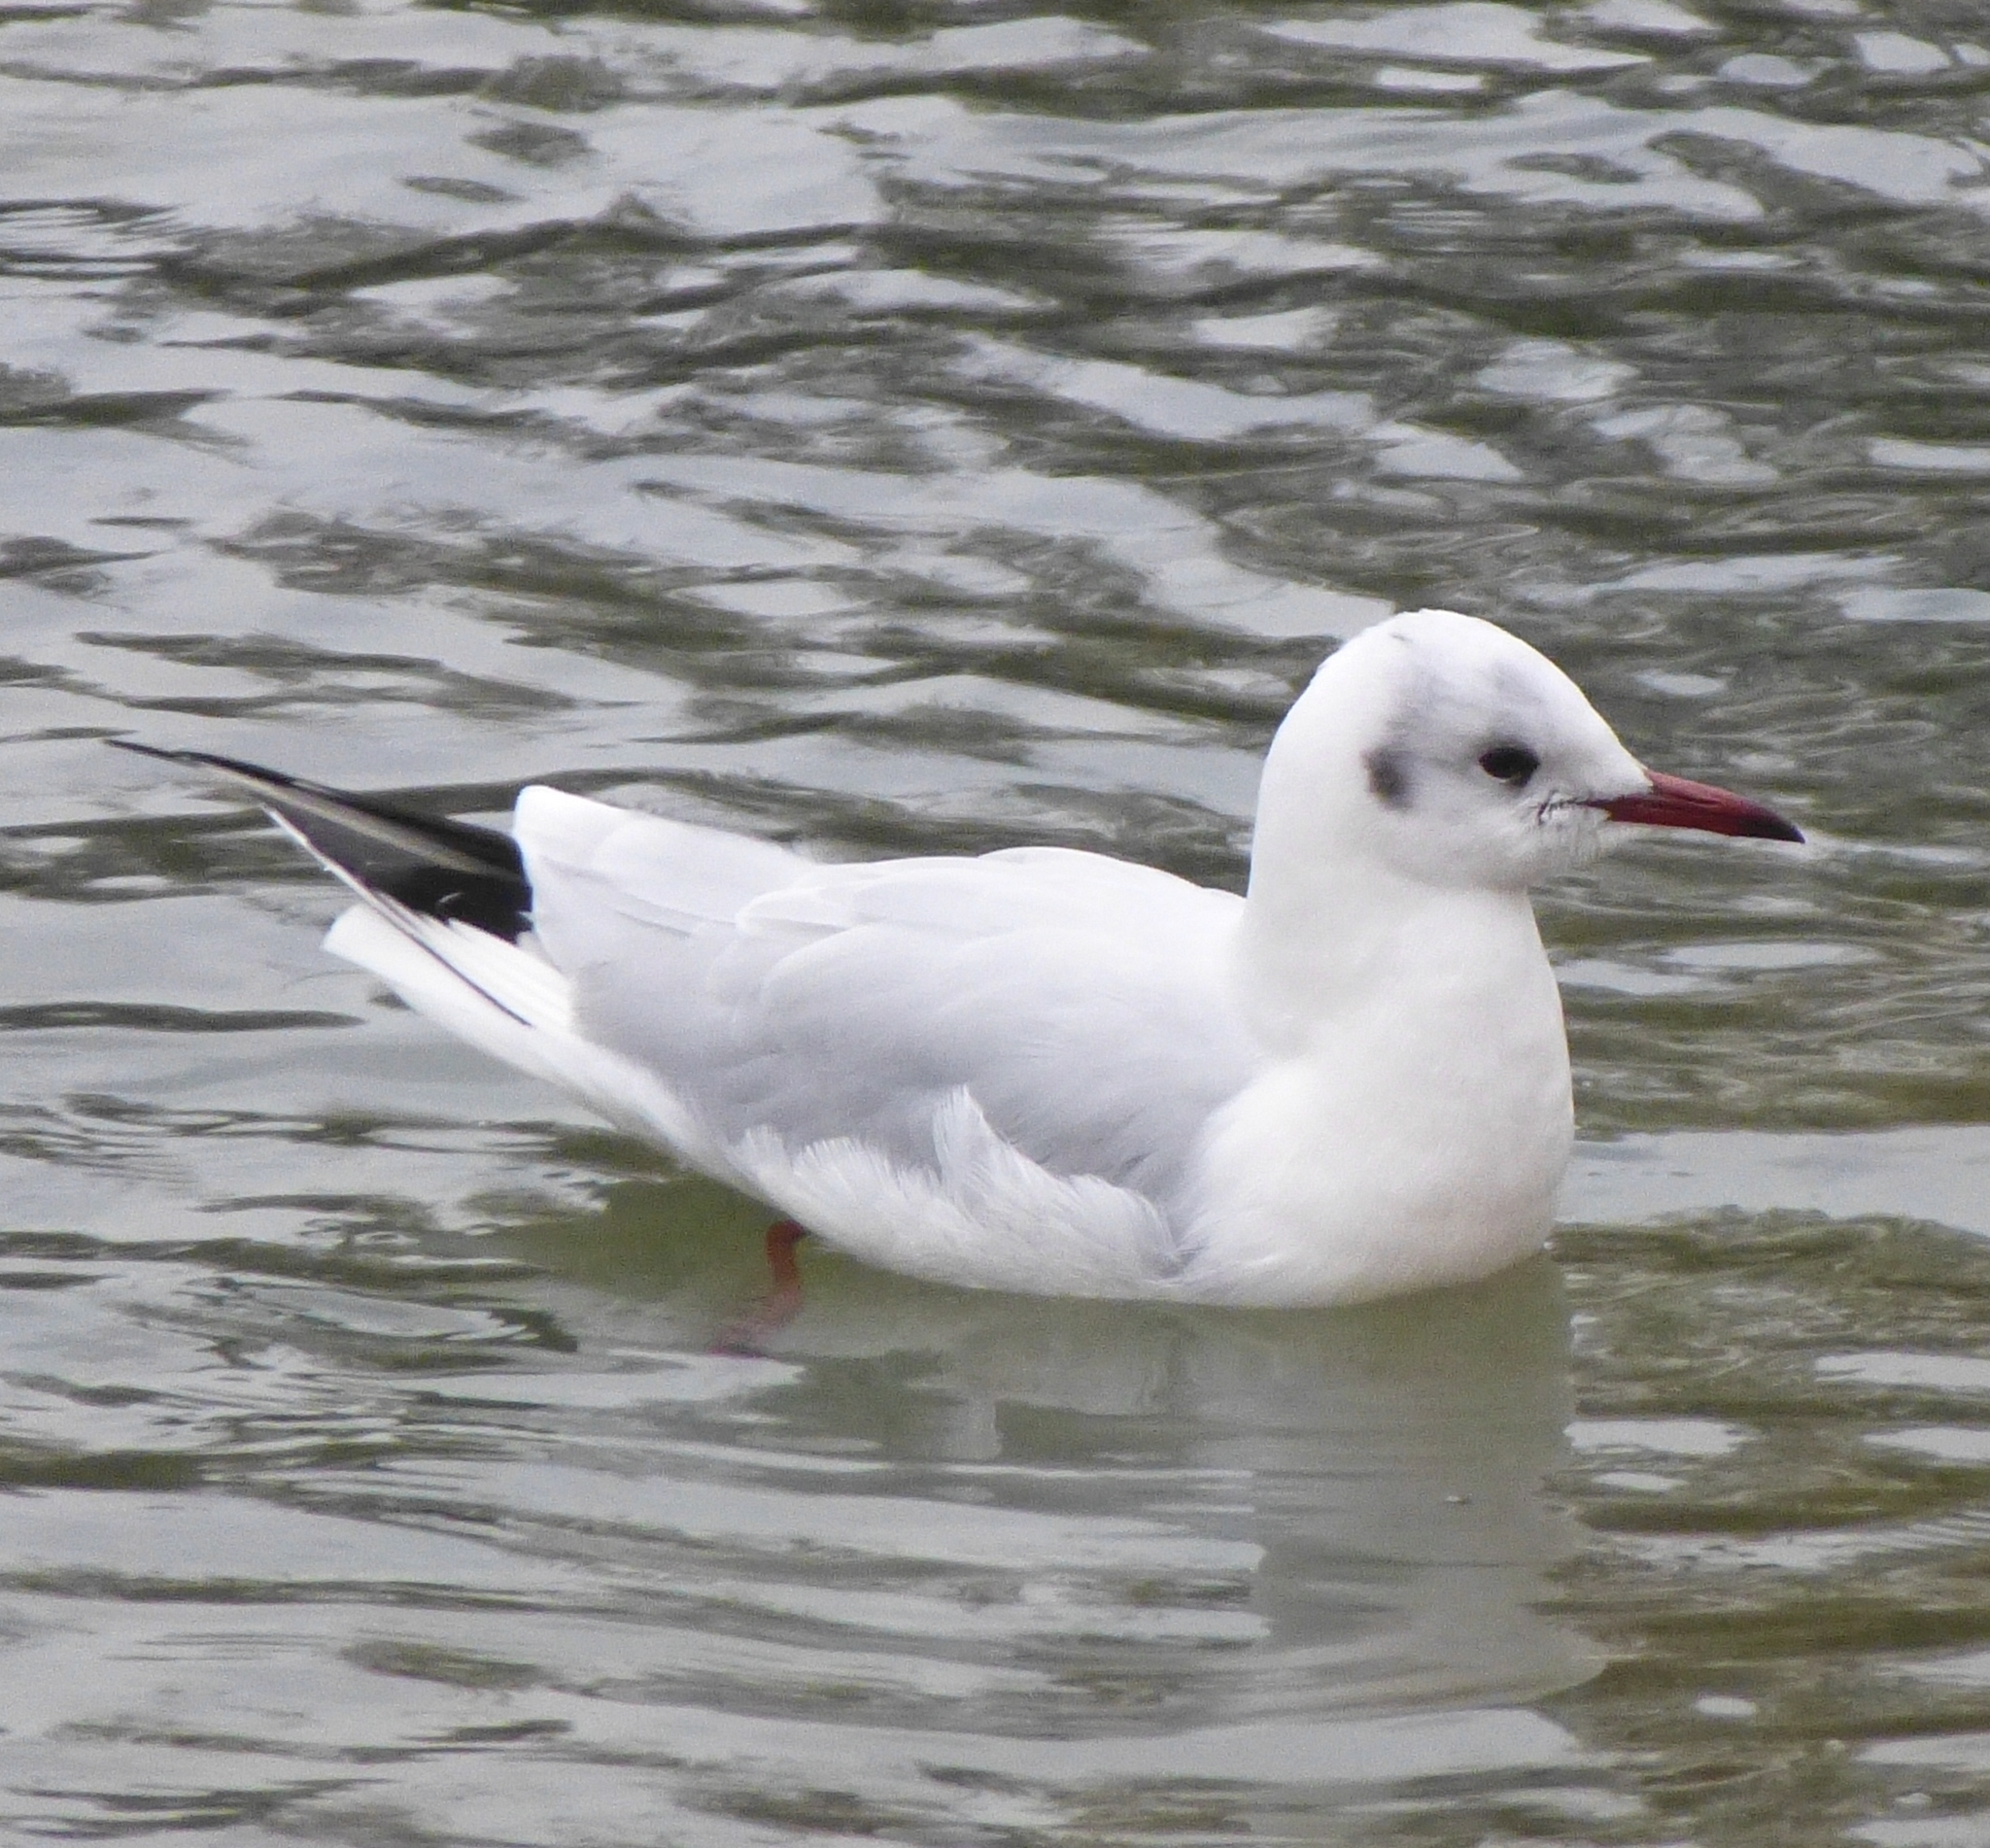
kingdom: Animalia
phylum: Chordata
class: Aves
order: Charadriiformes
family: Laridae
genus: Chroicocephalus
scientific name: Chroicocephalus ridibundus
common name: Black-headed gull
